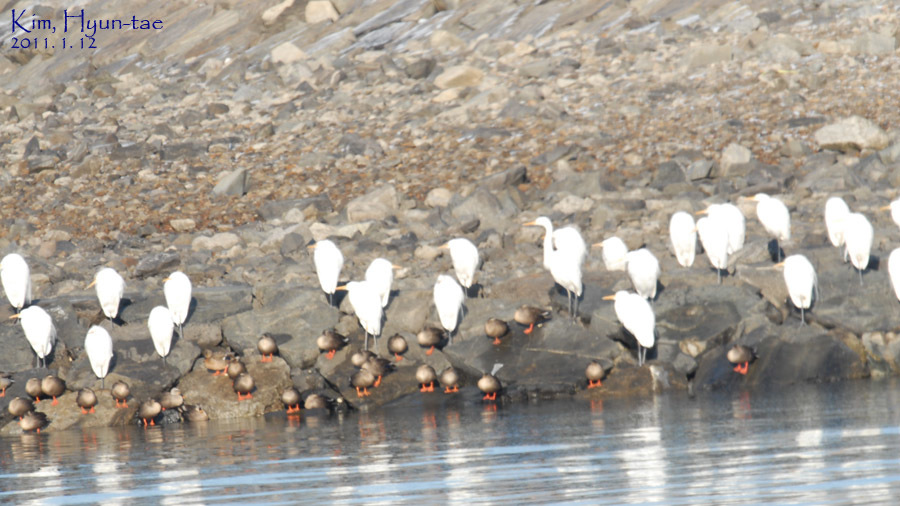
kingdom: Animalia
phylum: Chordata
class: Aves
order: Pelecaniformes
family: Ardeidae
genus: Ardea
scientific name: Ardea alba
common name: Great egret
